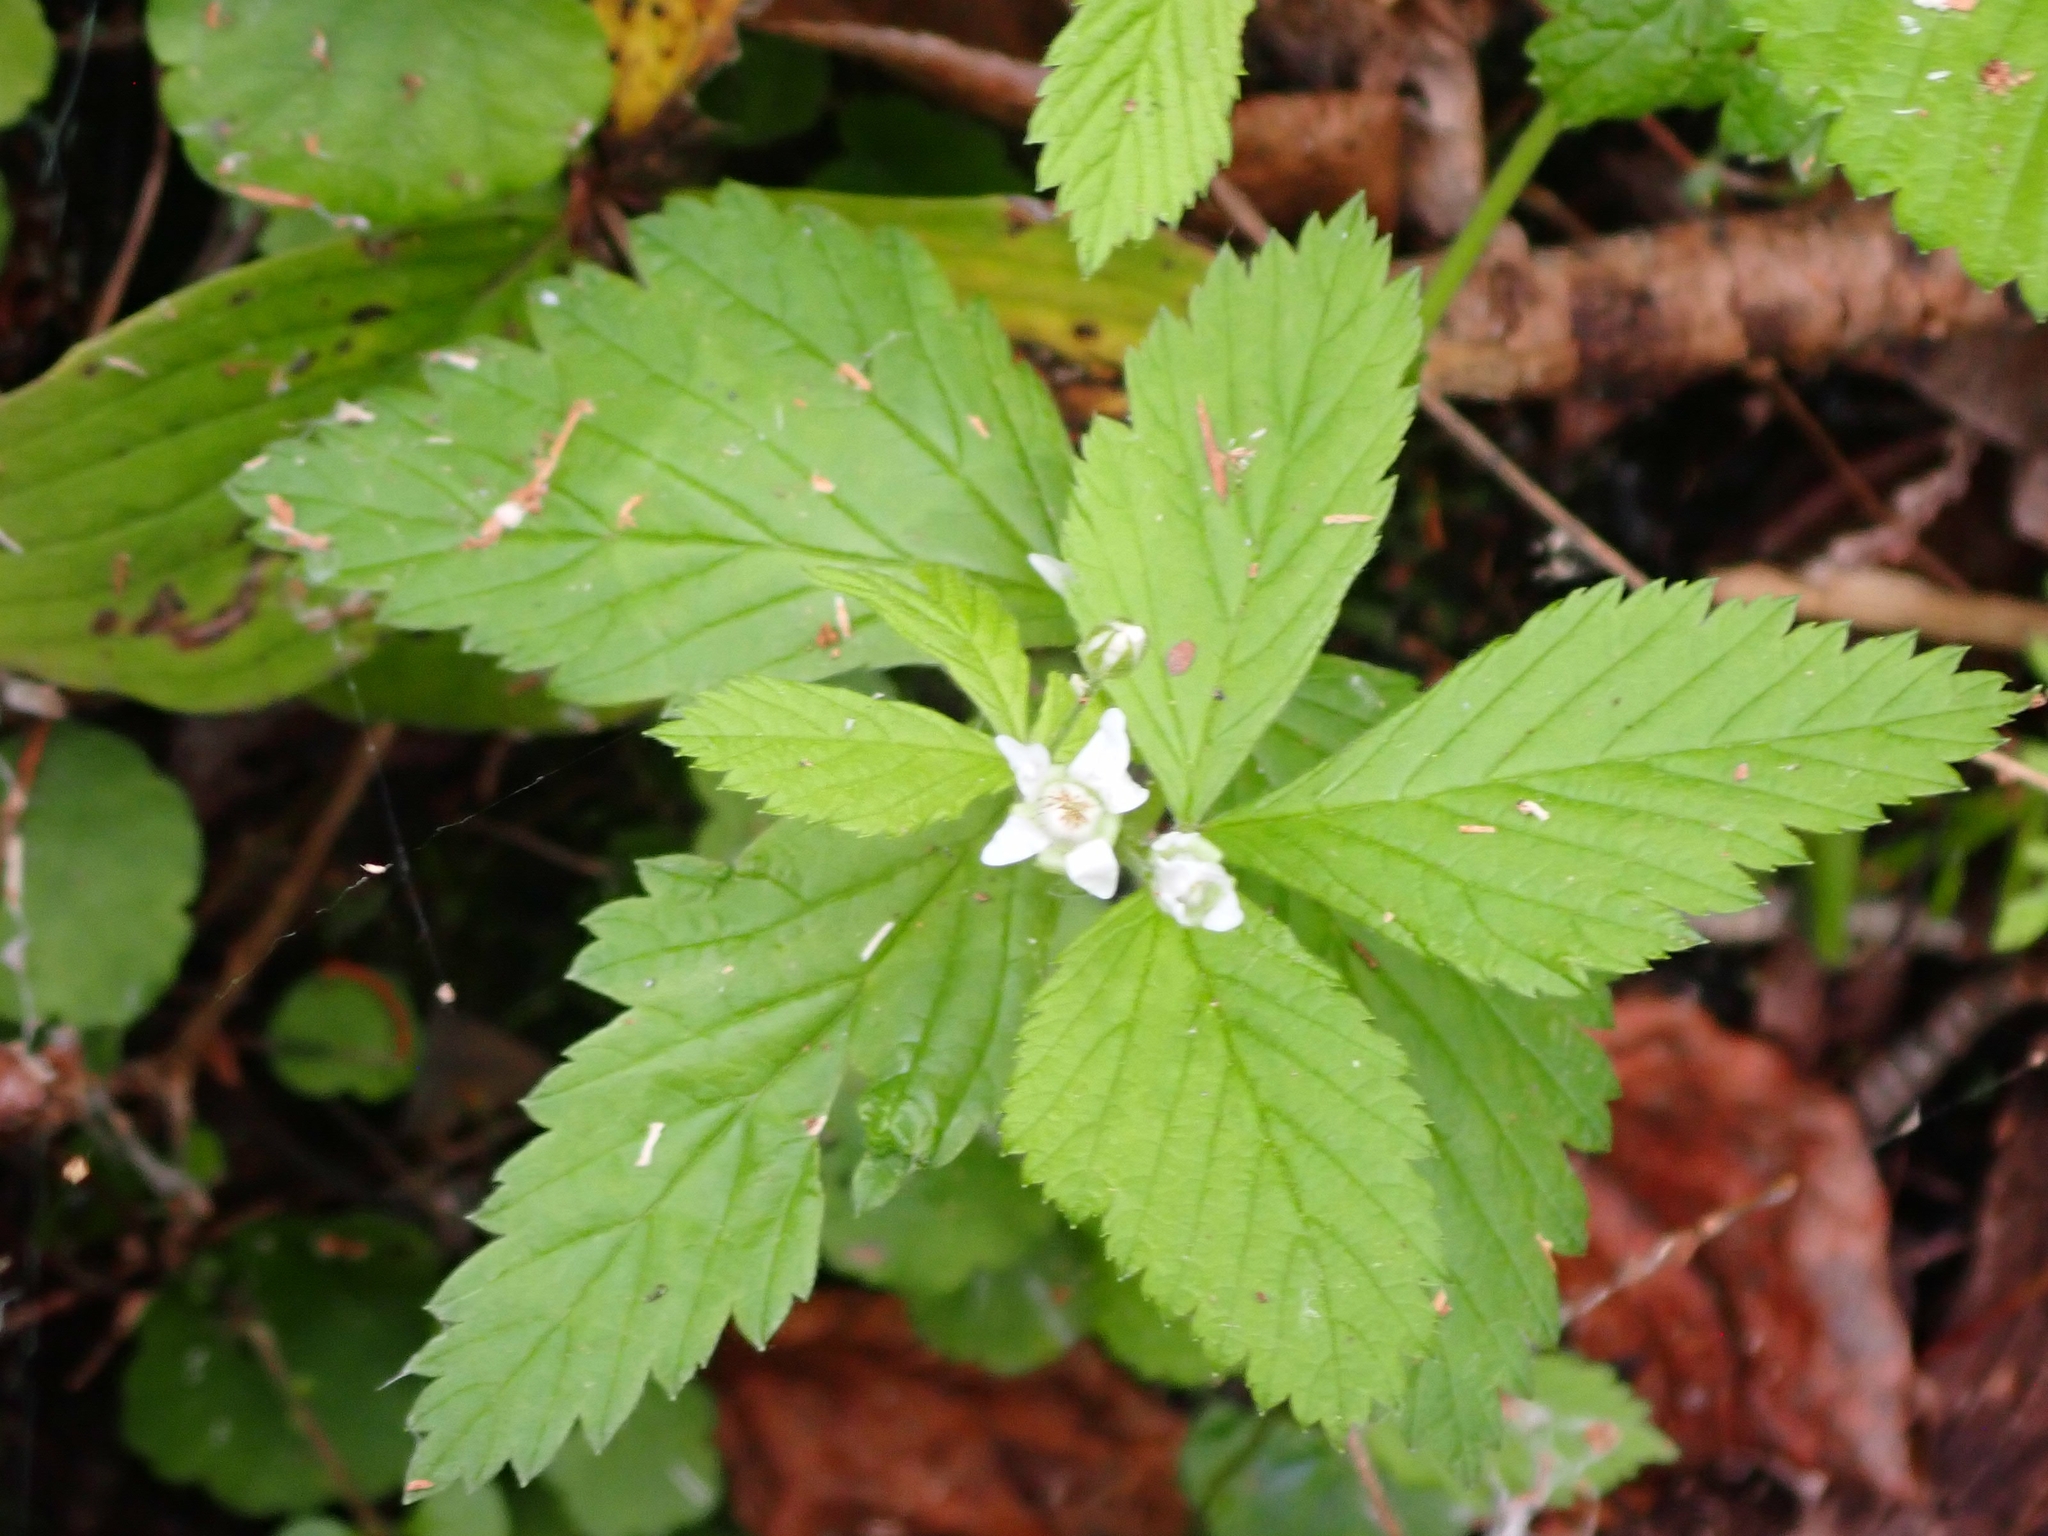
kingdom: Plantae
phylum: Tracheophyta
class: Magnoliopsida
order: Rosales
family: Rosaceae
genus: Rubus
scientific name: Rubus pubescens
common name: Dwarf raspberry
